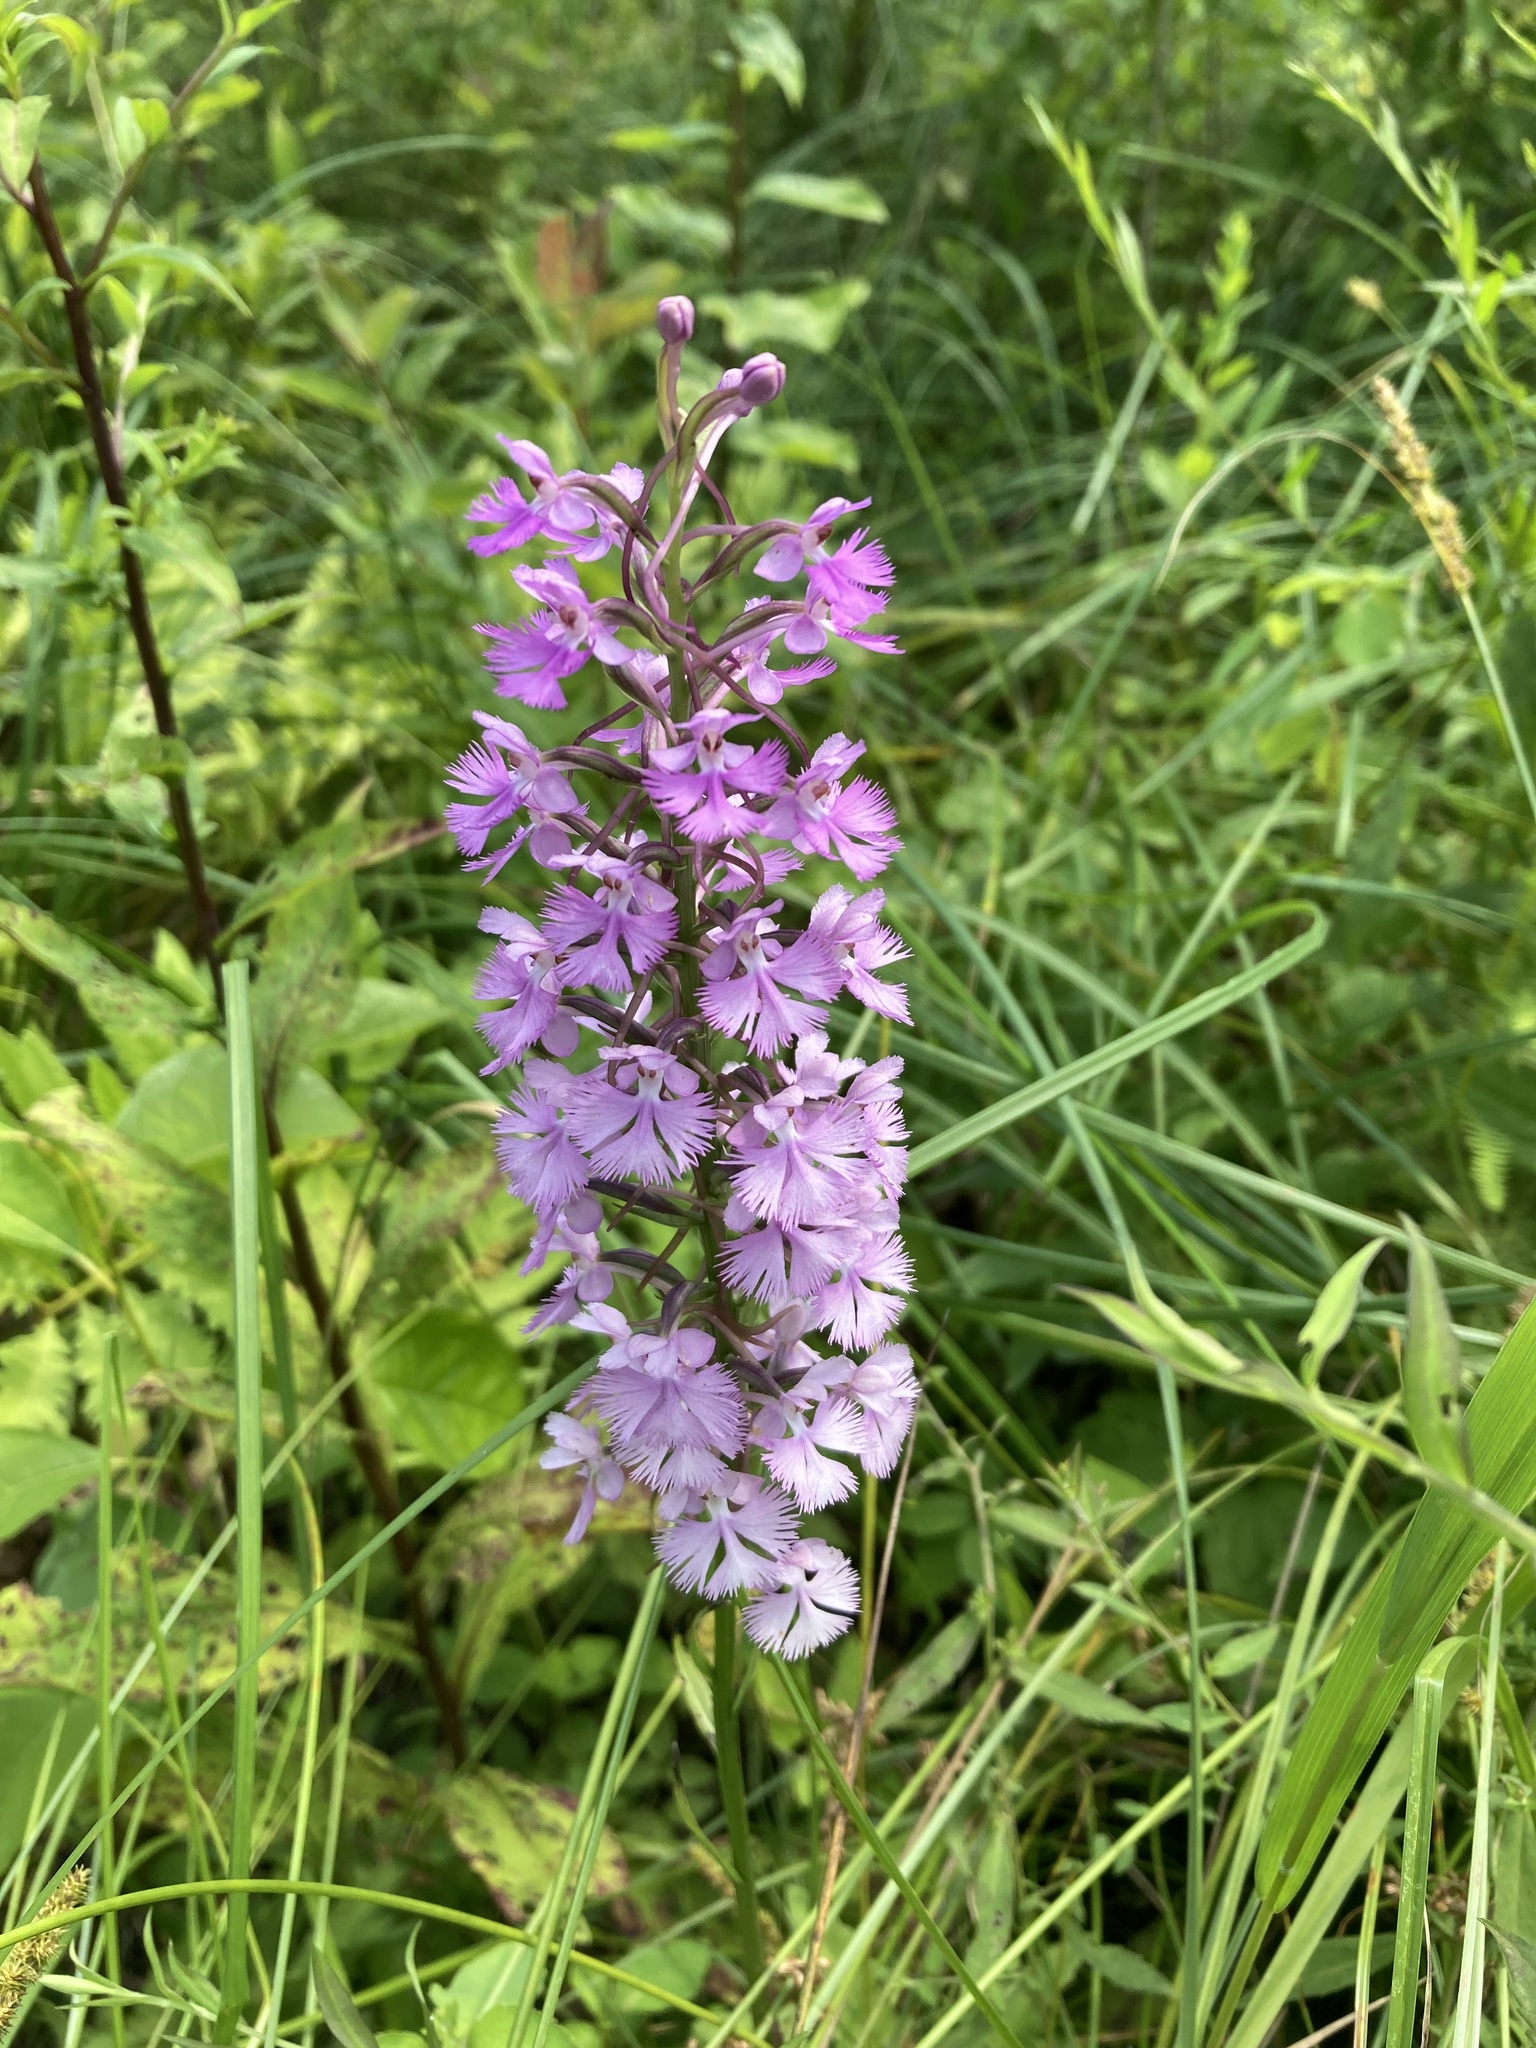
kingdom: Plantae
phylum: Tracheophyta
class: Liliopsida
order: Asparagales
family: Orchidaceae
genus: Platanthera
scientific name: Platanthera psycodes
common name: Lesser purple fringed orchid
